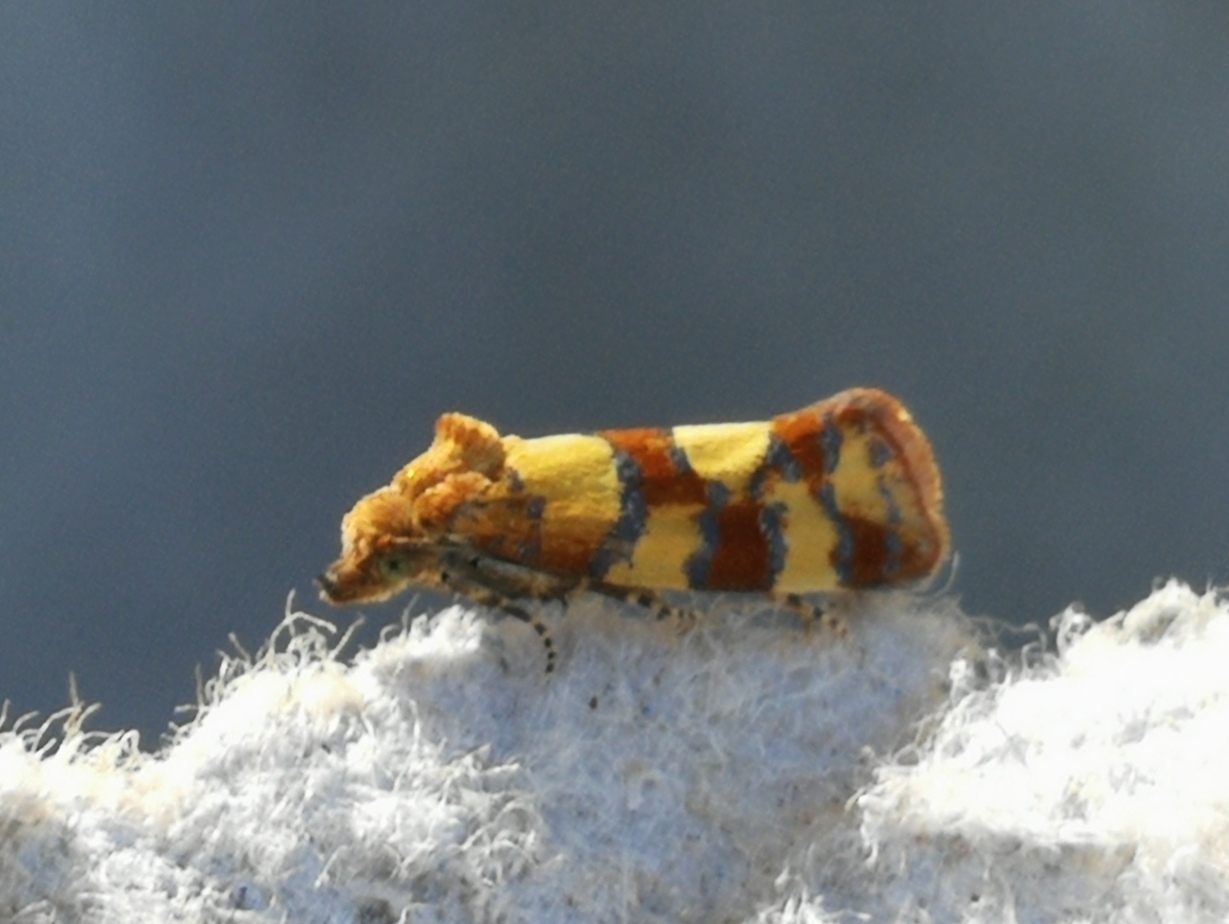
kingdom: Animalia
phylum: Arthropoda
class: Insecta
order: Lepidoptera
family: Tortricidae
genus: Aethes
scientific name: Aethes tesserana
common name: Downland conch
